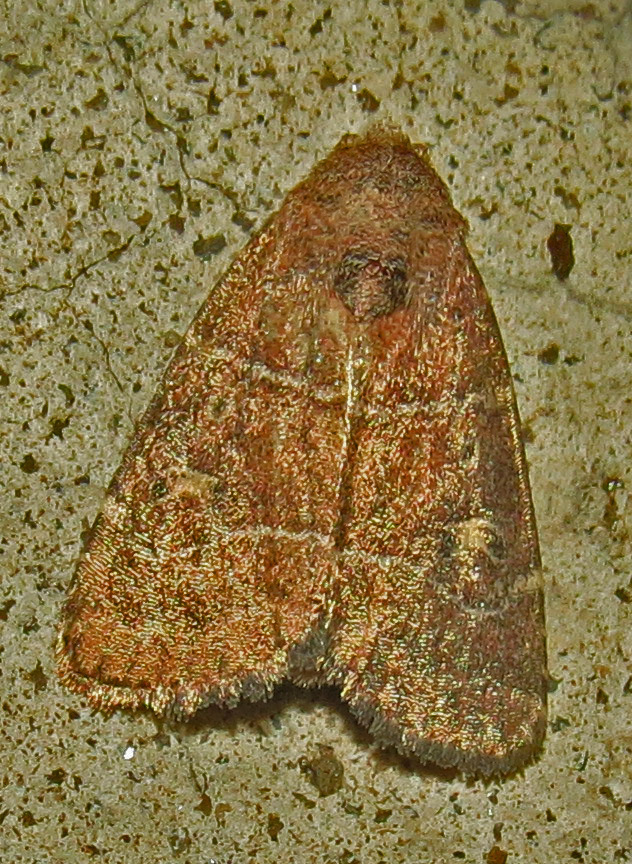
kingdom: Animalia
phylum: Arthropoda
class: Insecta
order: Lepidoptera
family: Noctuidae
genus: Elaphria
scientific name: Elaphria grata
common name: Grateful midget moth
